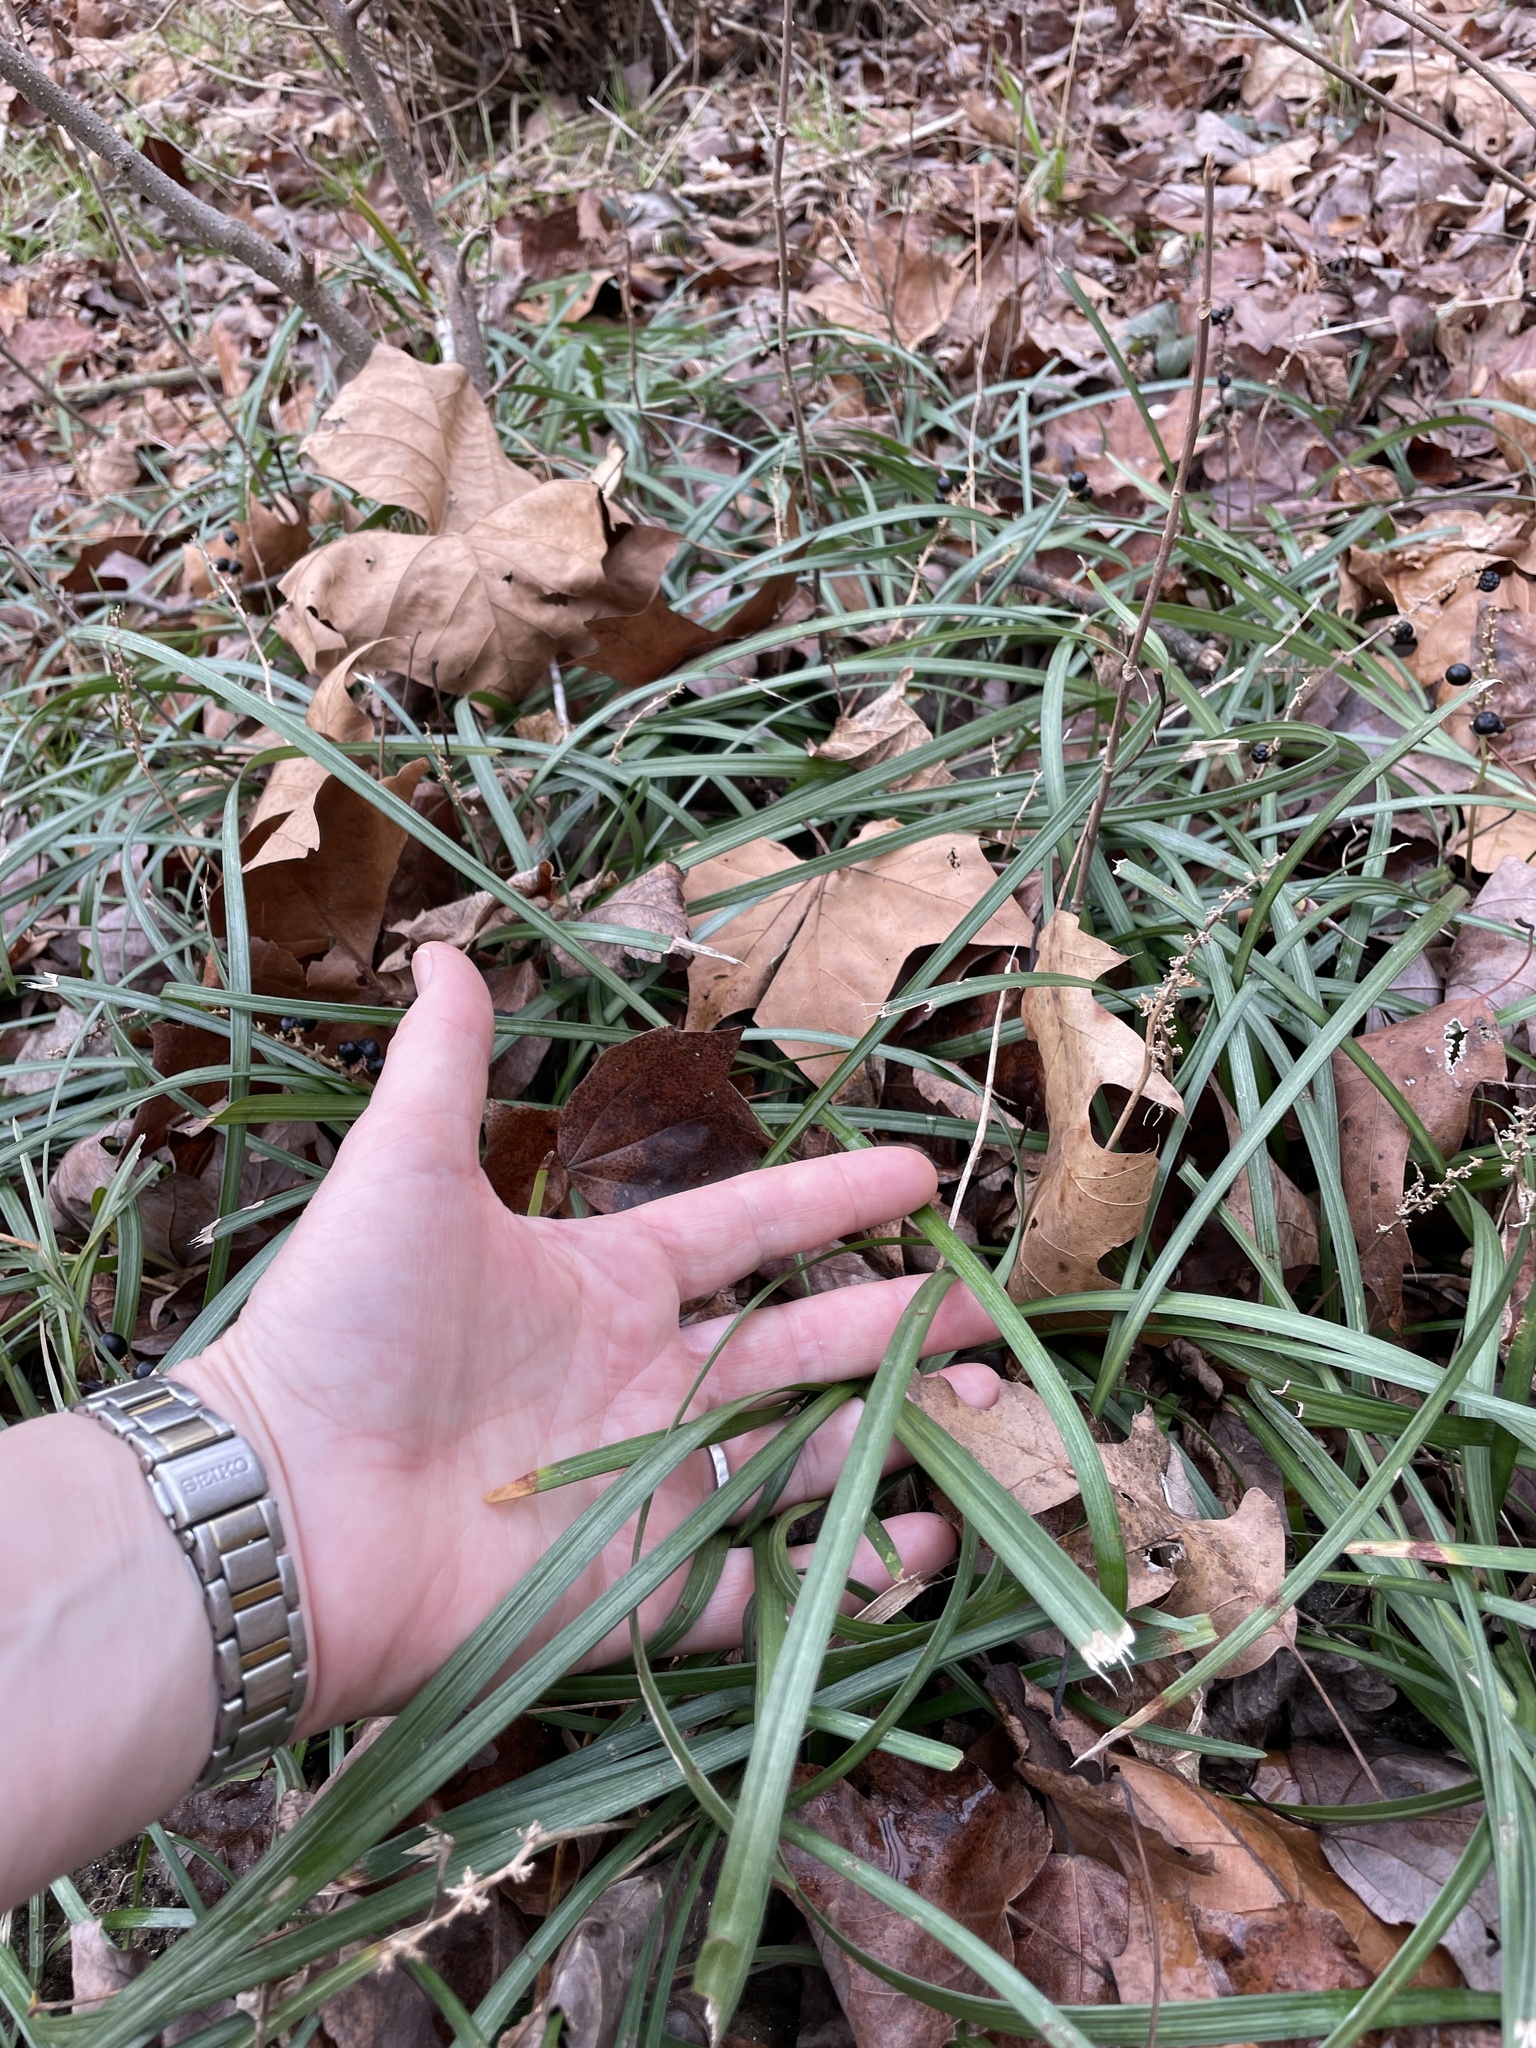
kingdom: Plantae
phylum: Tracheophyta
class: Liliopsida
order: Asparagales
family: Asparagaceae
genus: Liriope
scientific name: Liriope spicata
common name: Creeping liriope
